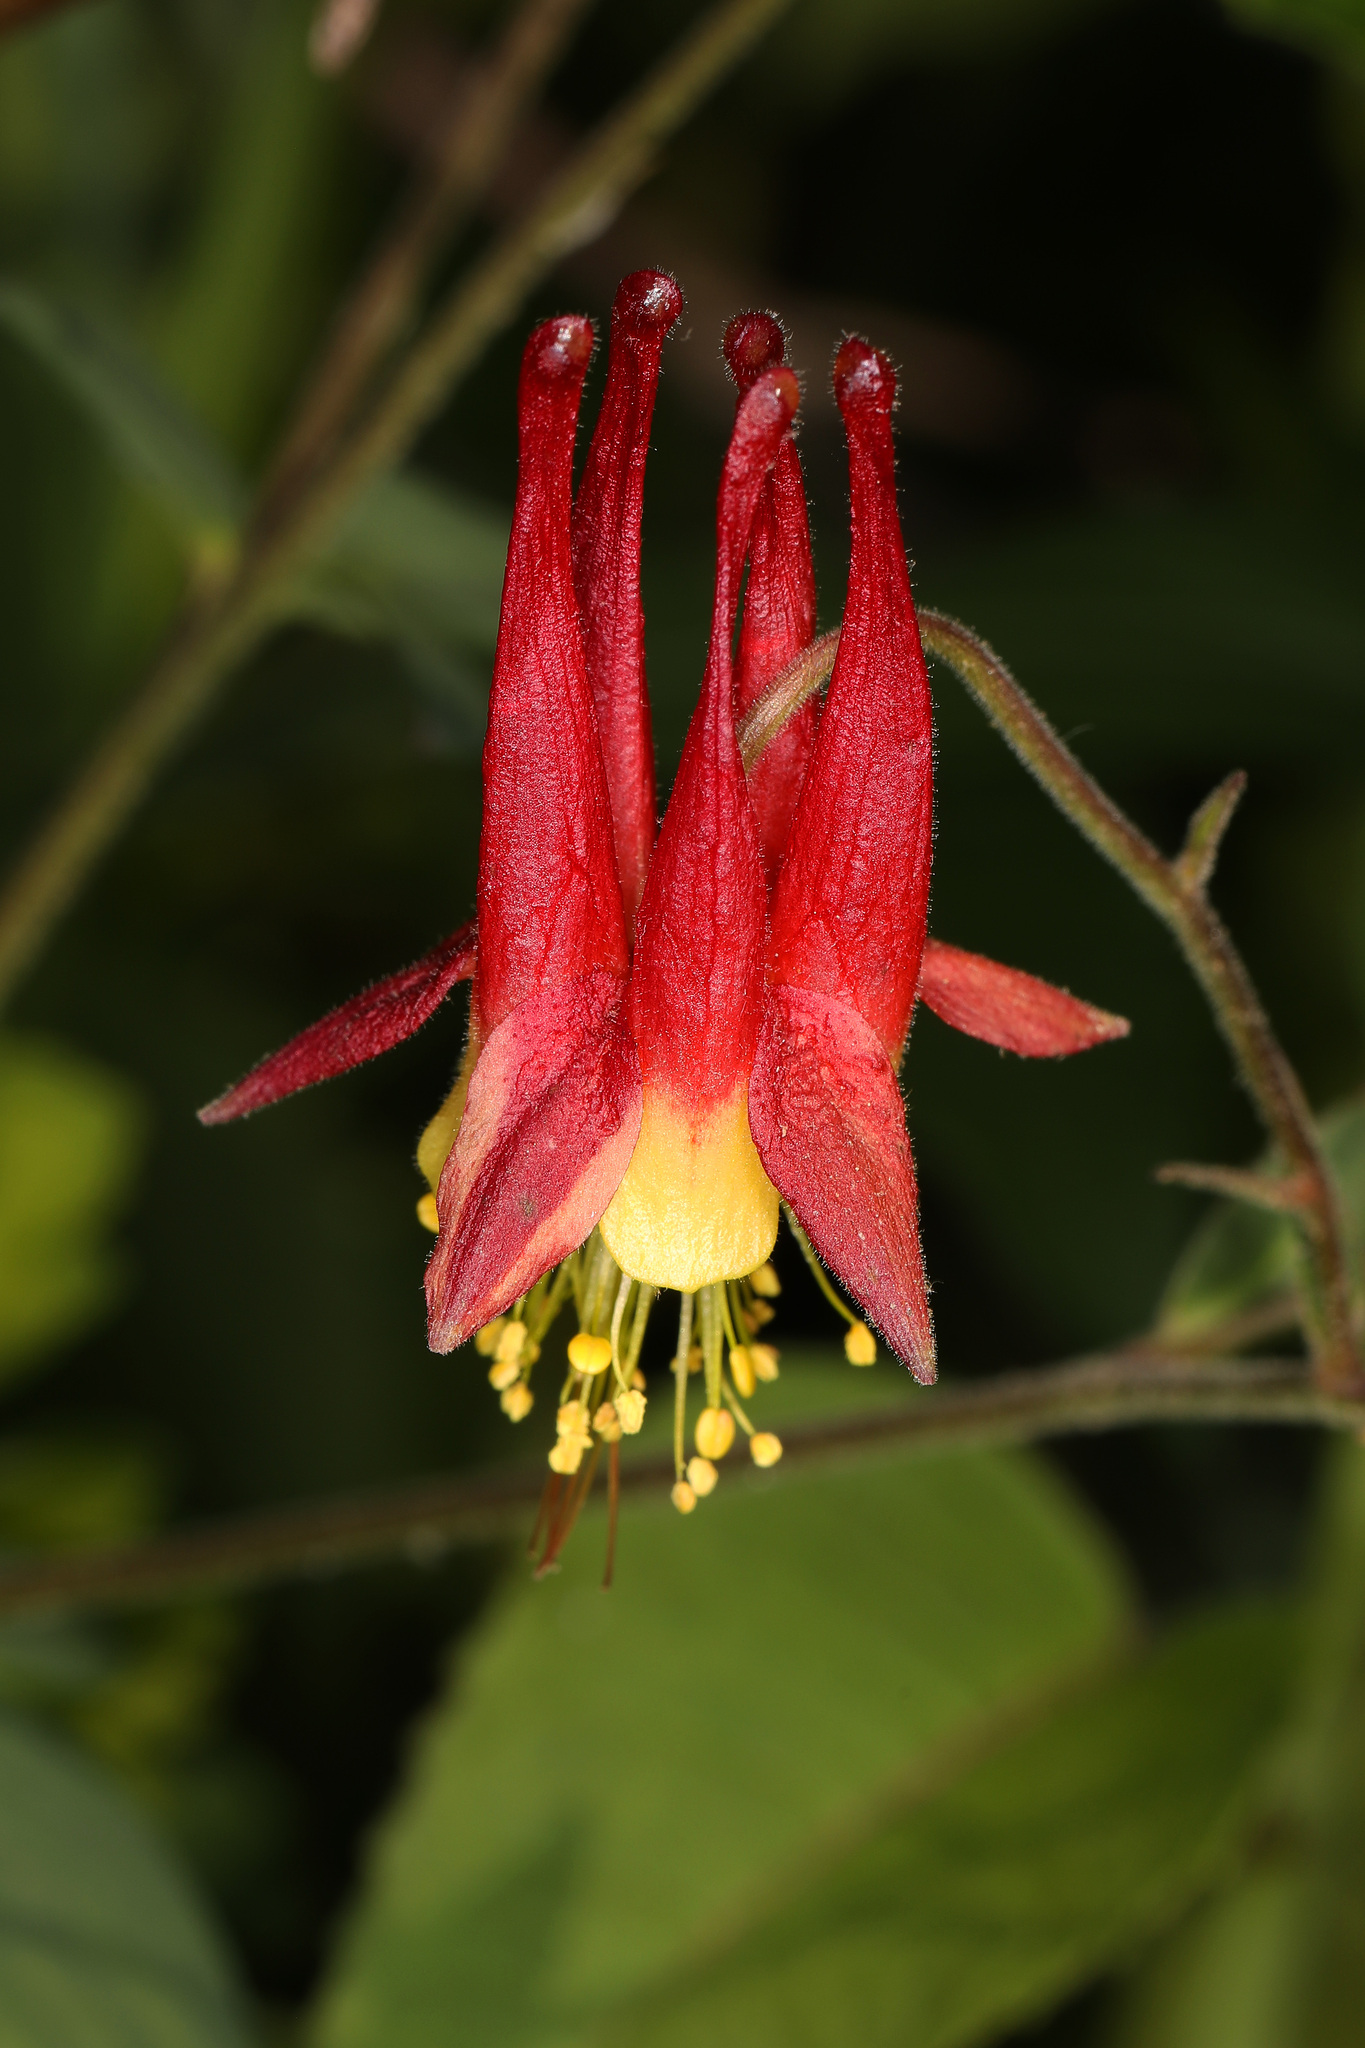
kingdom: Plantae
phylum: Tracheophyta
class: Magnoliopsida
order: Ranunculales
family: Ranunculaceae
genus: Aquilegia
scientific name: Aquilegia canadensis
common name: American columbine
